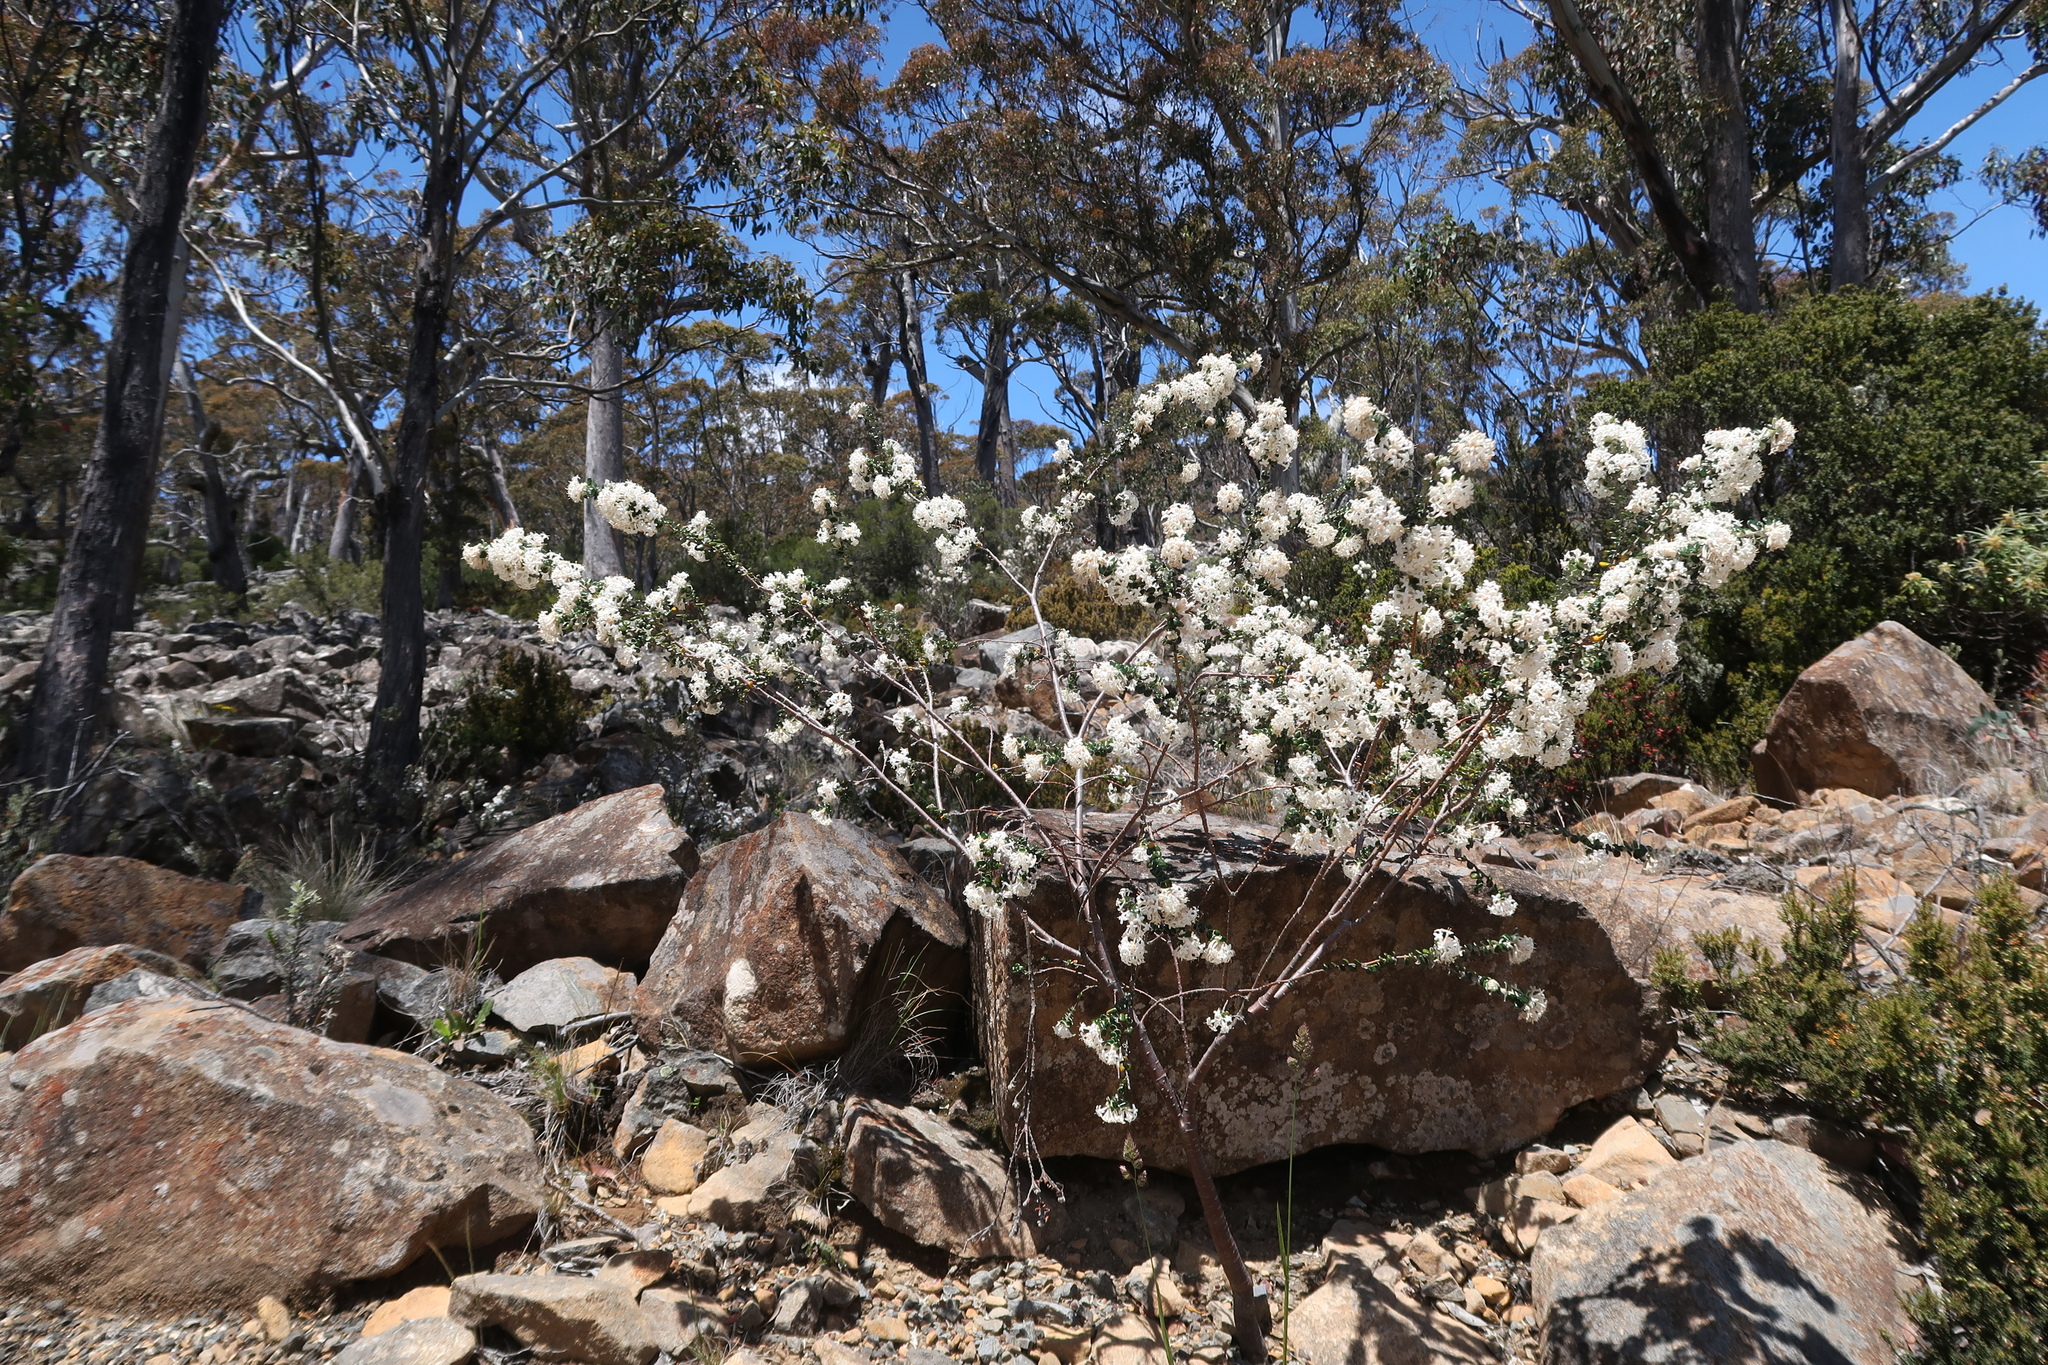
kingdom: Plantae
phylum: Tracheophyta
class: Magnoliopsida
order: Malvales
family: Thymelaeaceae
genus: Pimelea
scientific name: Pimelea nivea
